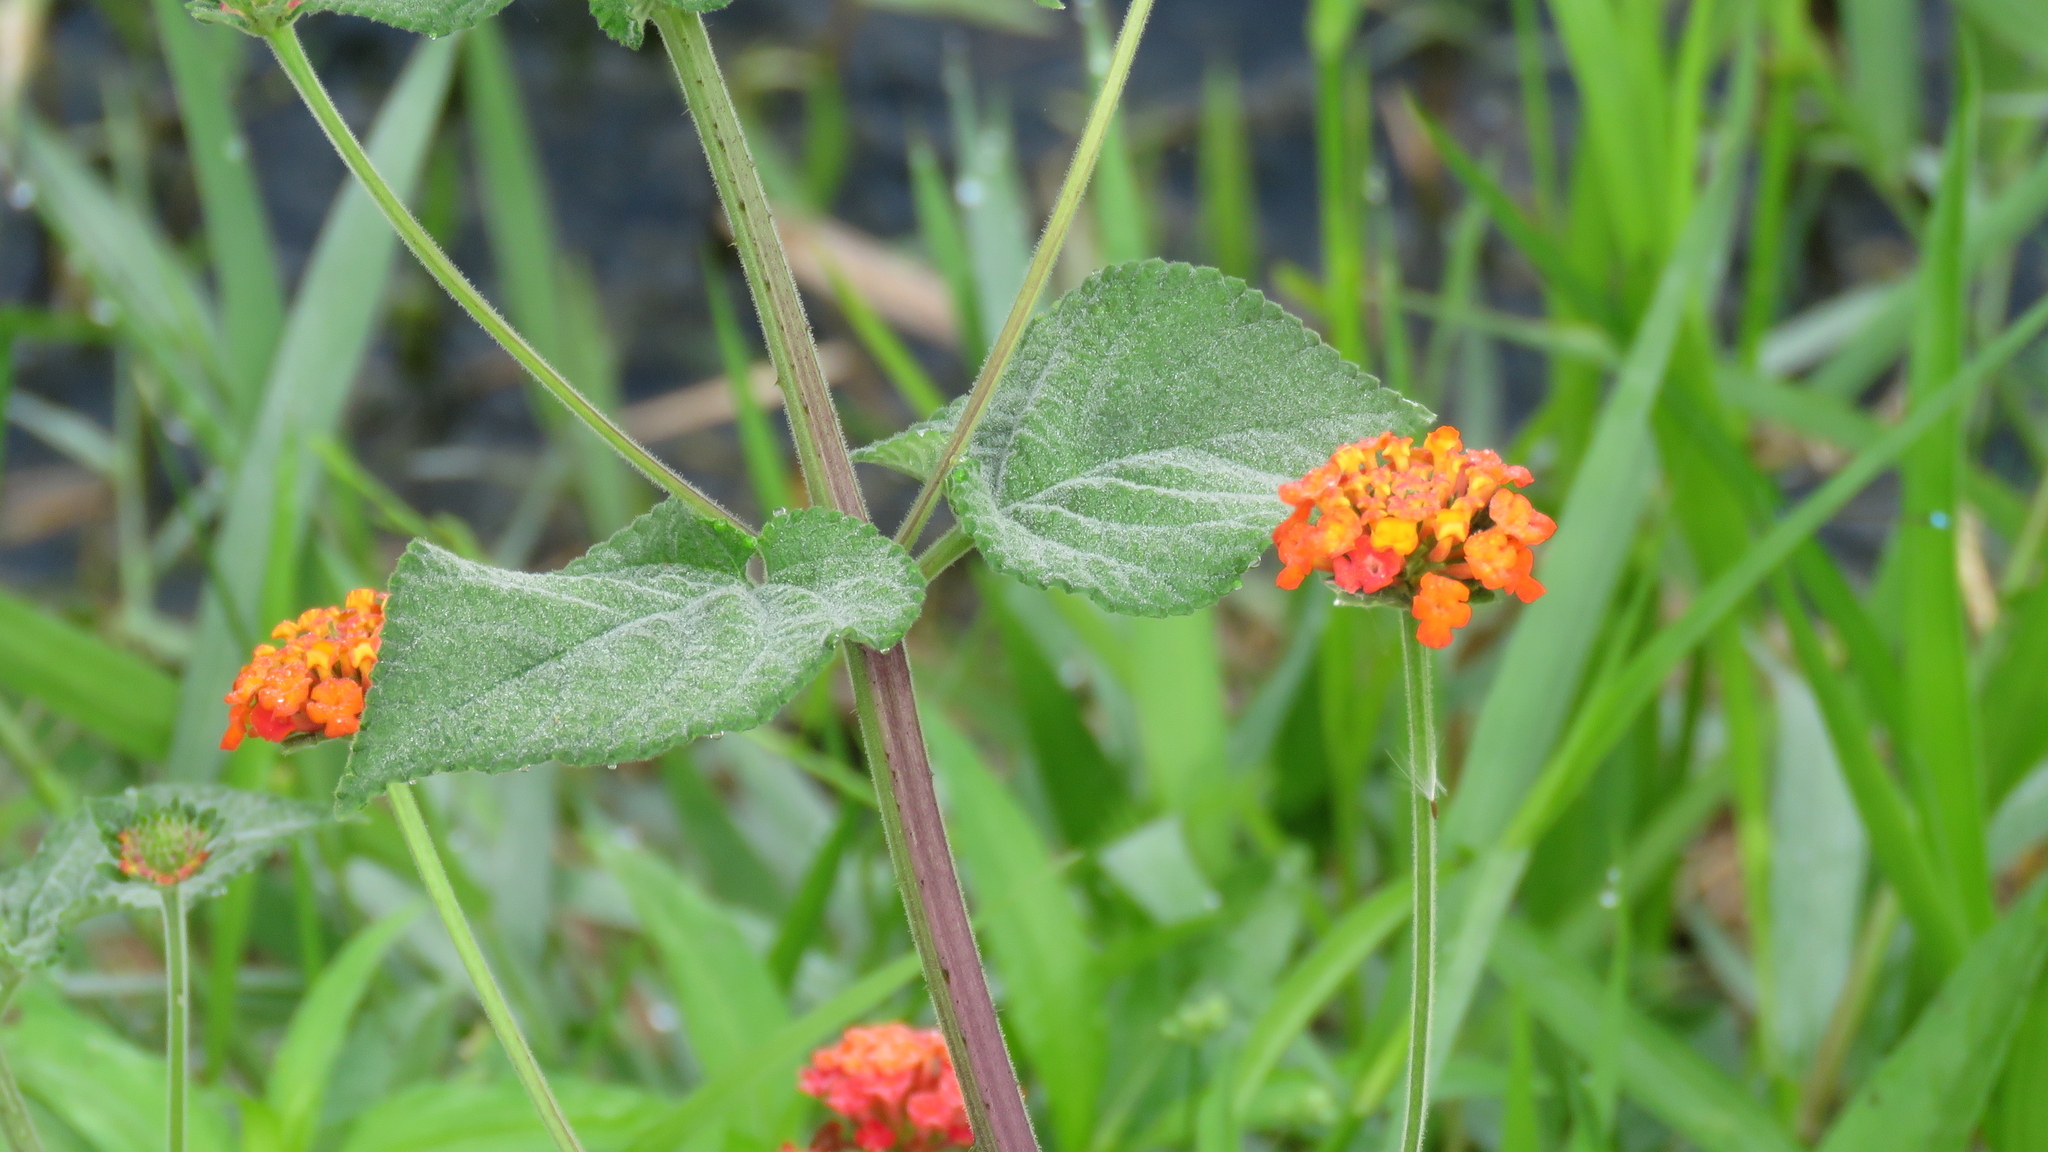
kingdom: Plantae
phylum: Tracheophyta
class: Magnoliopsida
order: Lamiales
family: Verbenaceae
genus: Lantana
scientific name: Lantana camara
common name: Lantana
